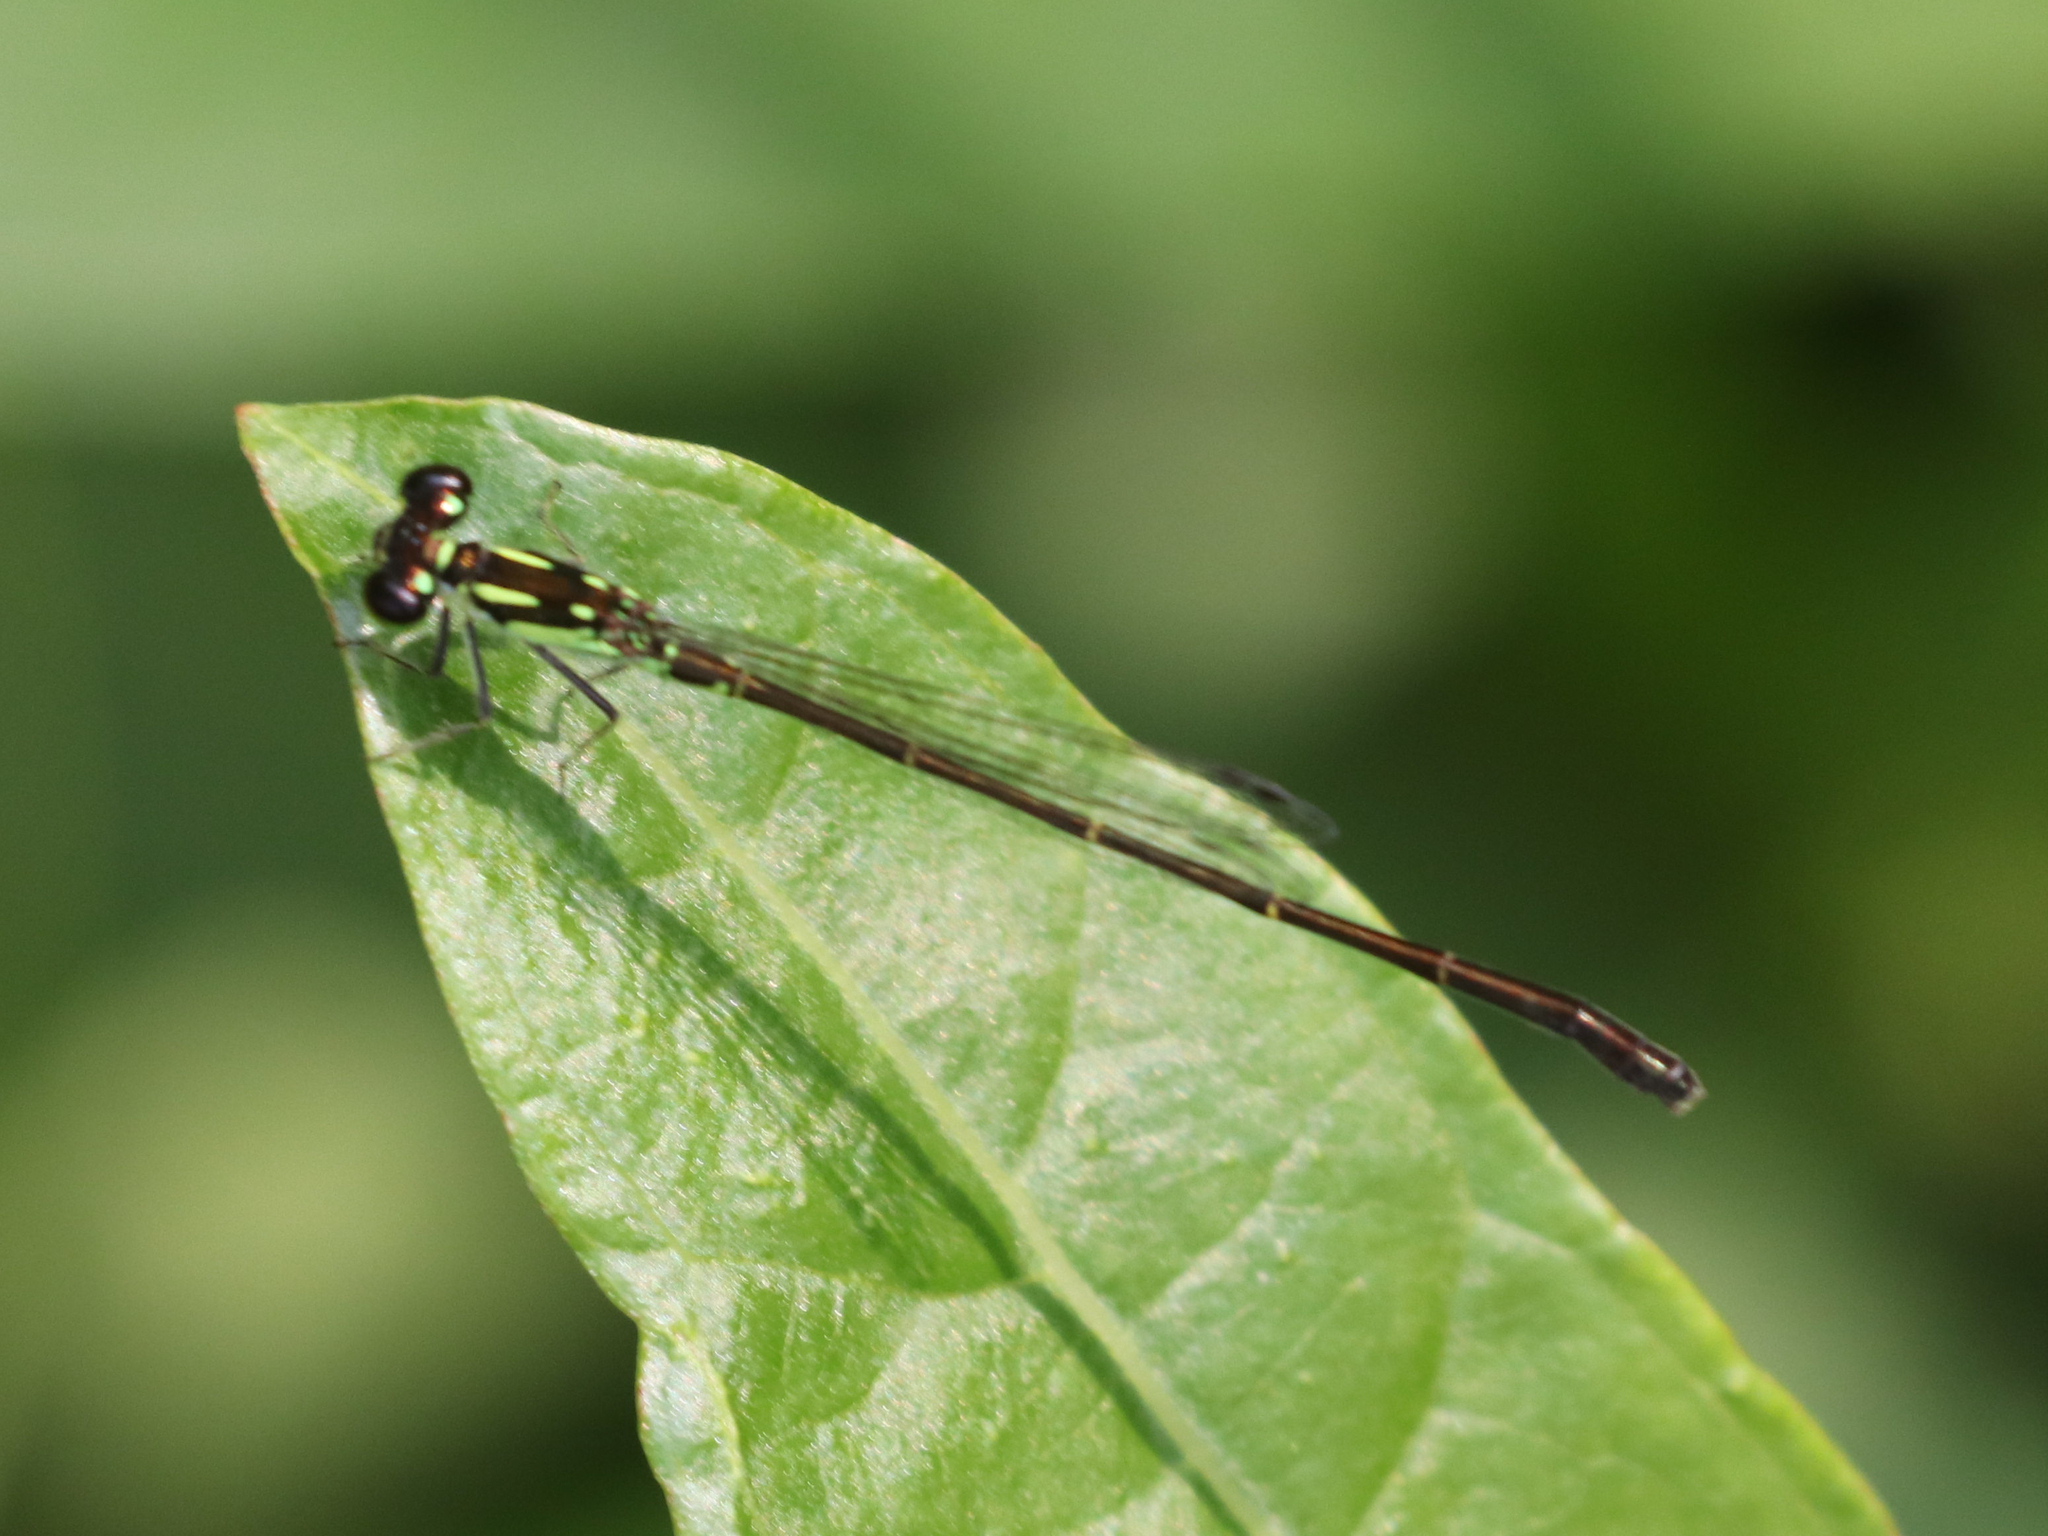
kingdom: Animalia
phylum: Arthropoda
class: Insecta
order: Odonata
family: Coenagrionidae
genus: Ischnura
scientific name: Ischnura posita
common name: Fragile forktail
